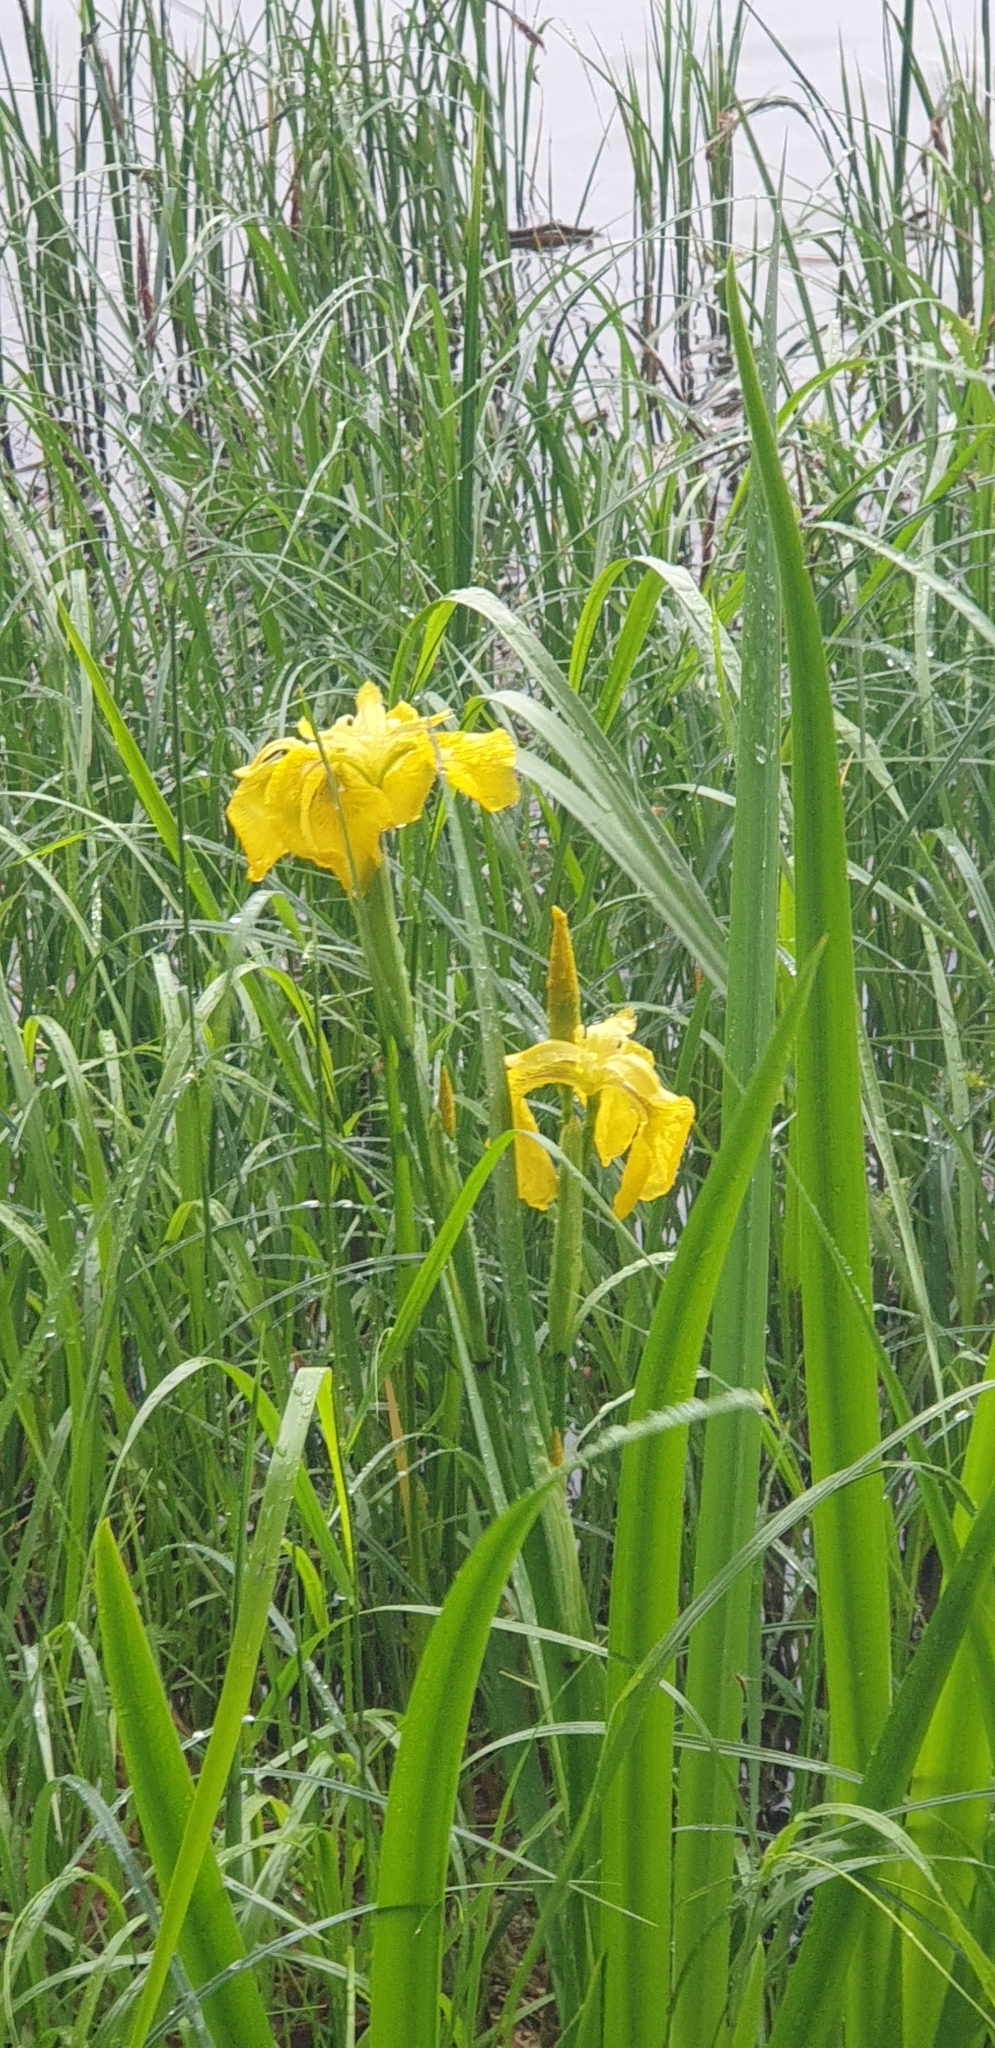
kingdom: Plantae
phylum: Tracheophyta
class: Liliopsida
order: Asparagales
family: Iridaceae
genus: Iris
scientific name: Iris pseudacorus
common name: Yellow flag
